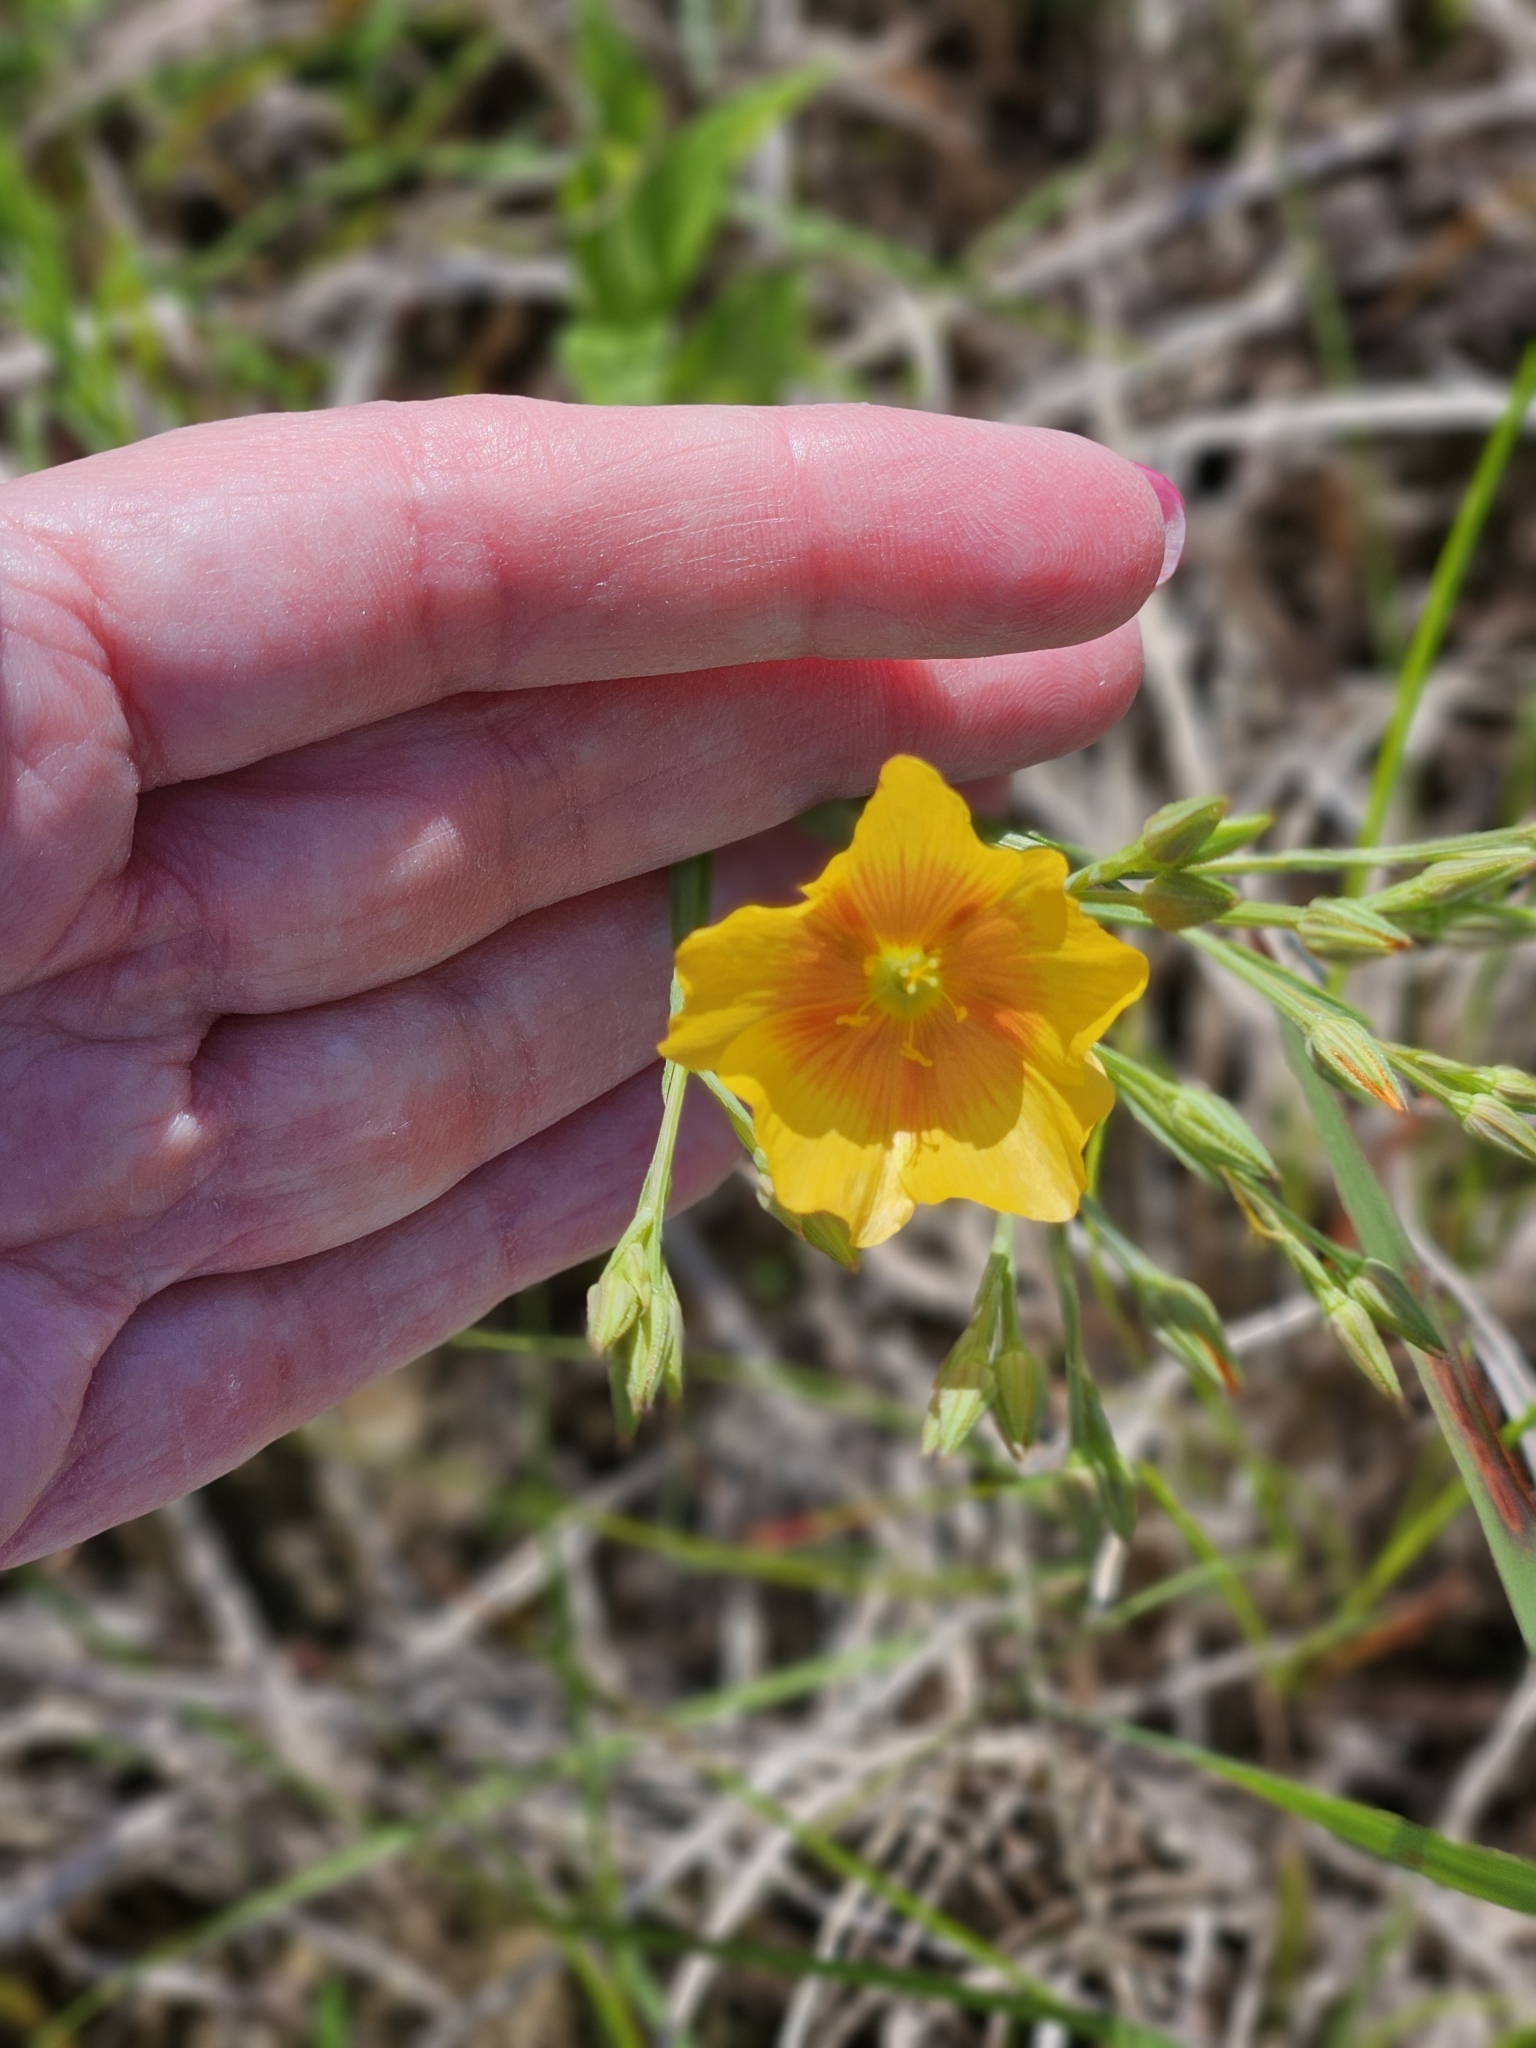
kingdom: Plantae
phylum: Tracheophyta
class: Magnoliopsida
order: Malpighiales
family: Linaceae
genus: Linum
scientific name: Linum berlandieri
